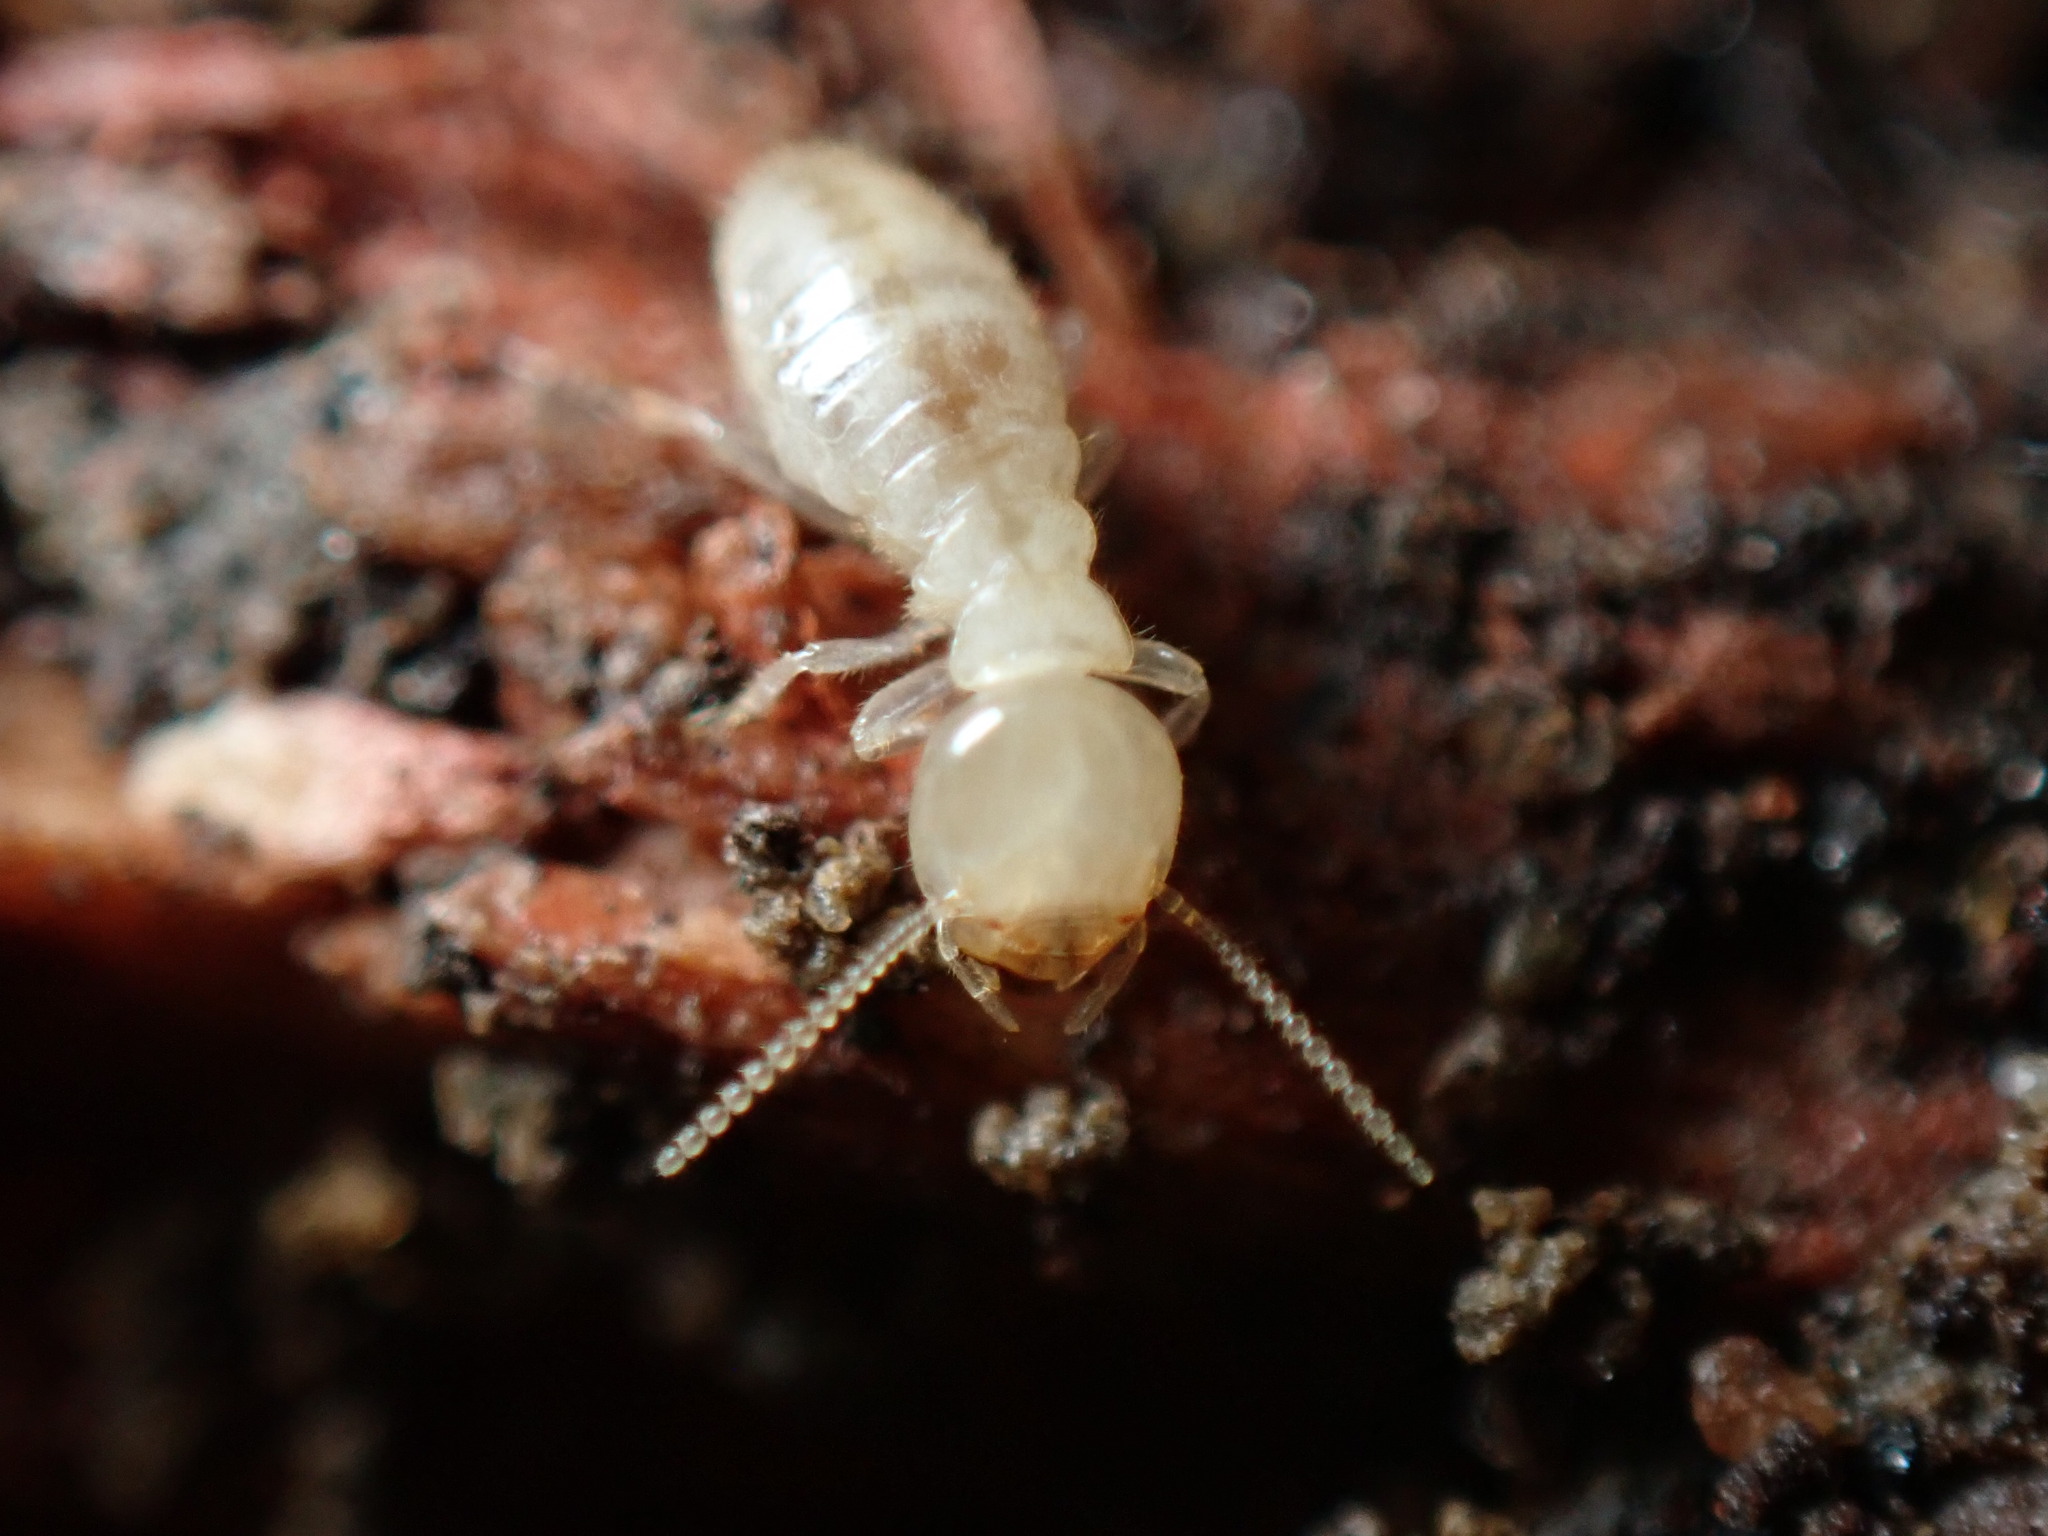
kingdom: Animalia
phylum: Arthropoda
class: Insecta
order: Blattodea
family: Rhinotermitidae
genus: Reticulitermes
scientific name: Reticulitermes flavipes
